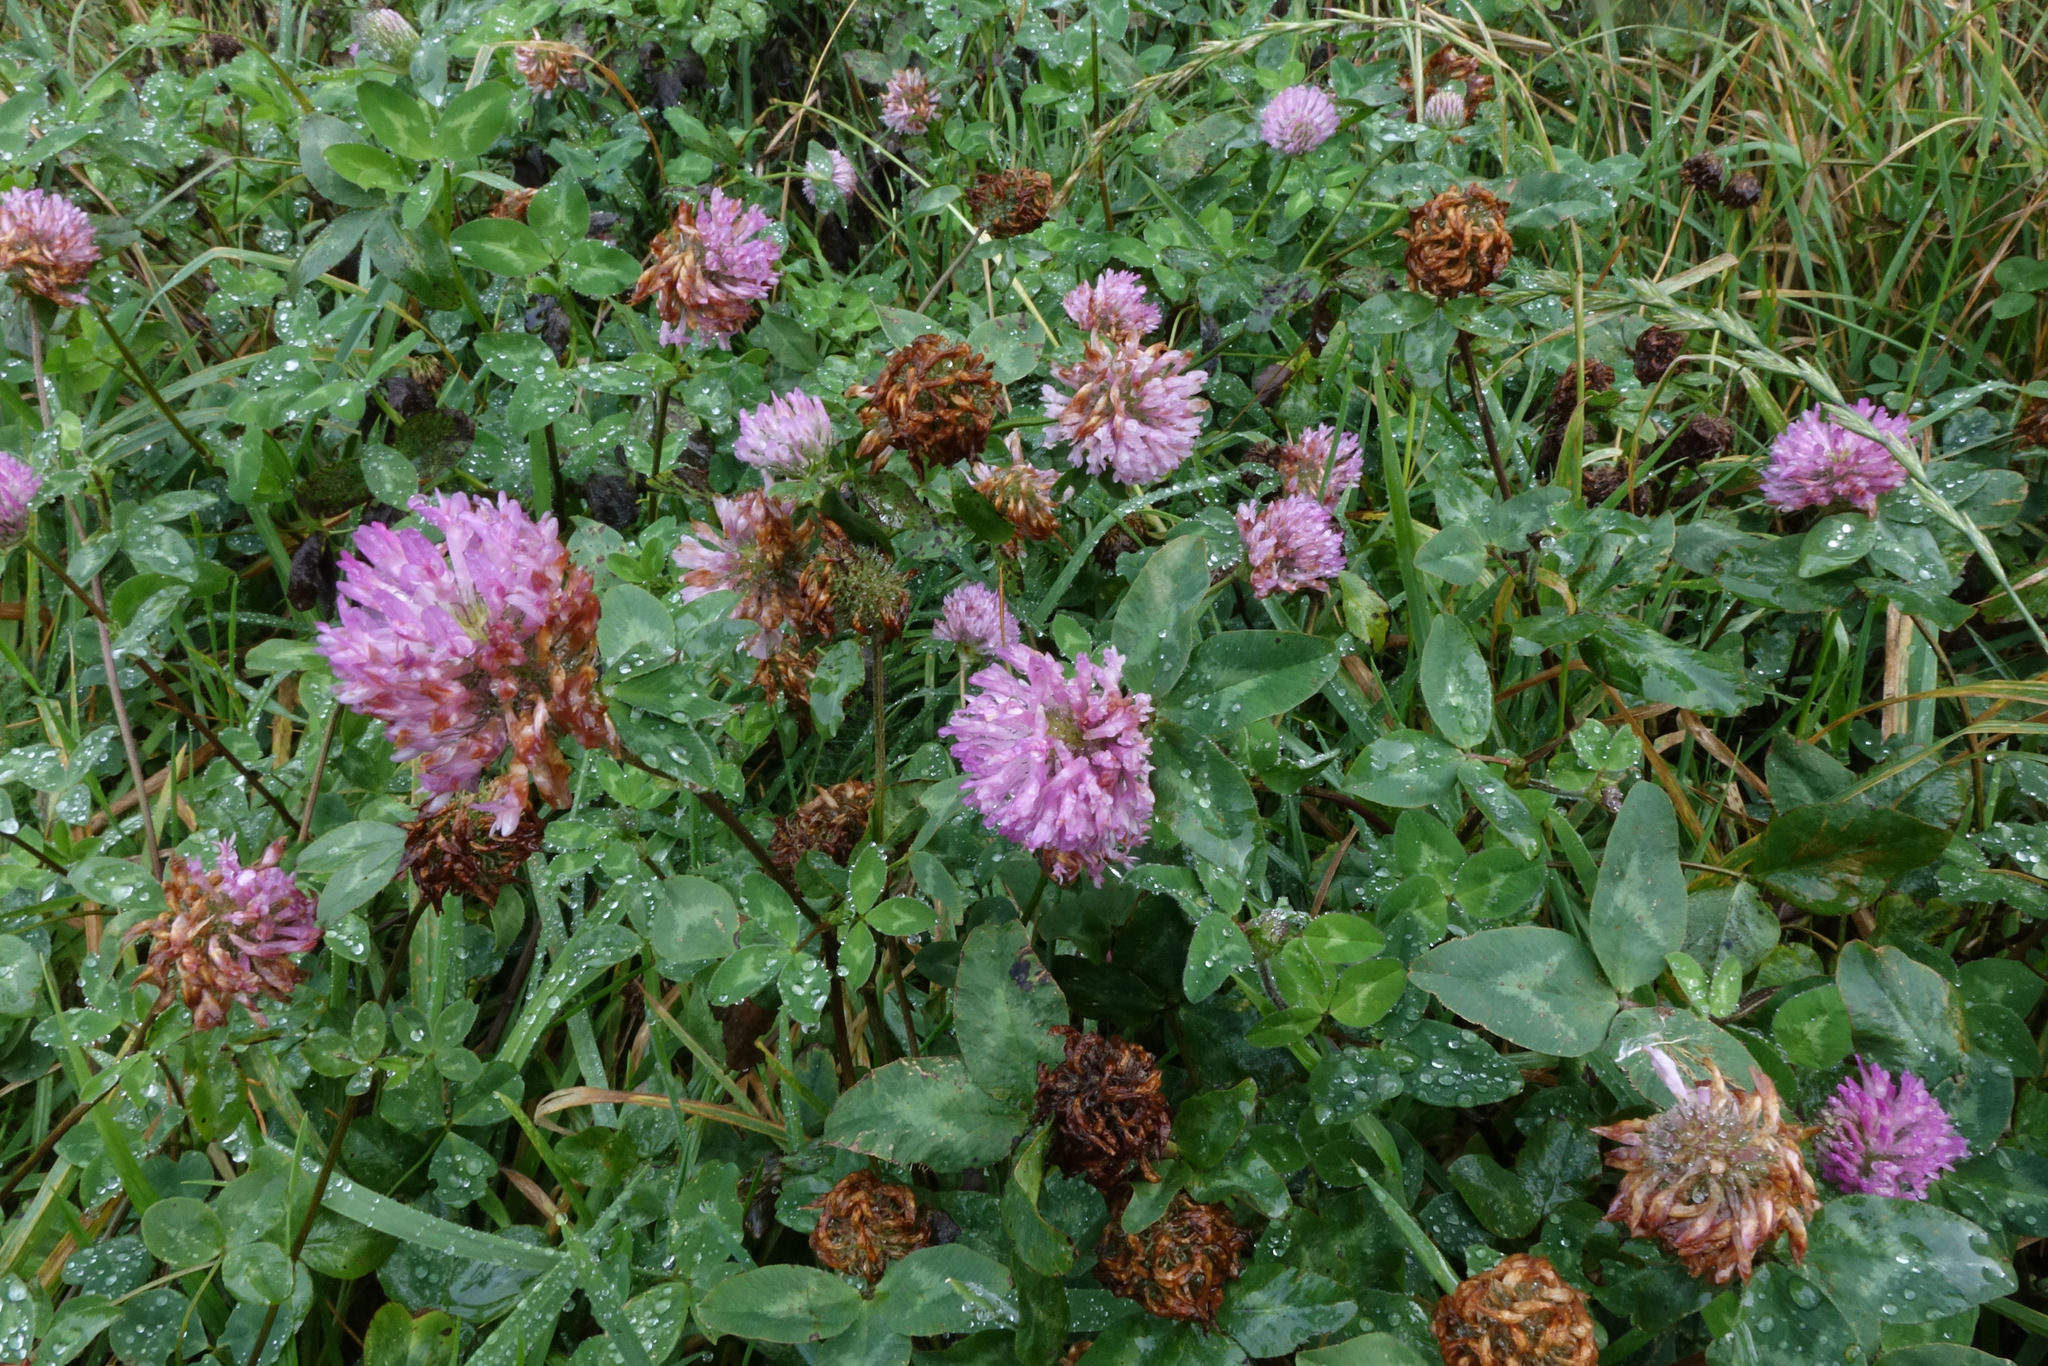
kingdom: Plantae
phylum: Tracheophyta
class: Magnoliopsida
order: Fabales
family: Fabaceae
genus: Trifolium
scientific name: Trifolium pratense
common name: Red clover
